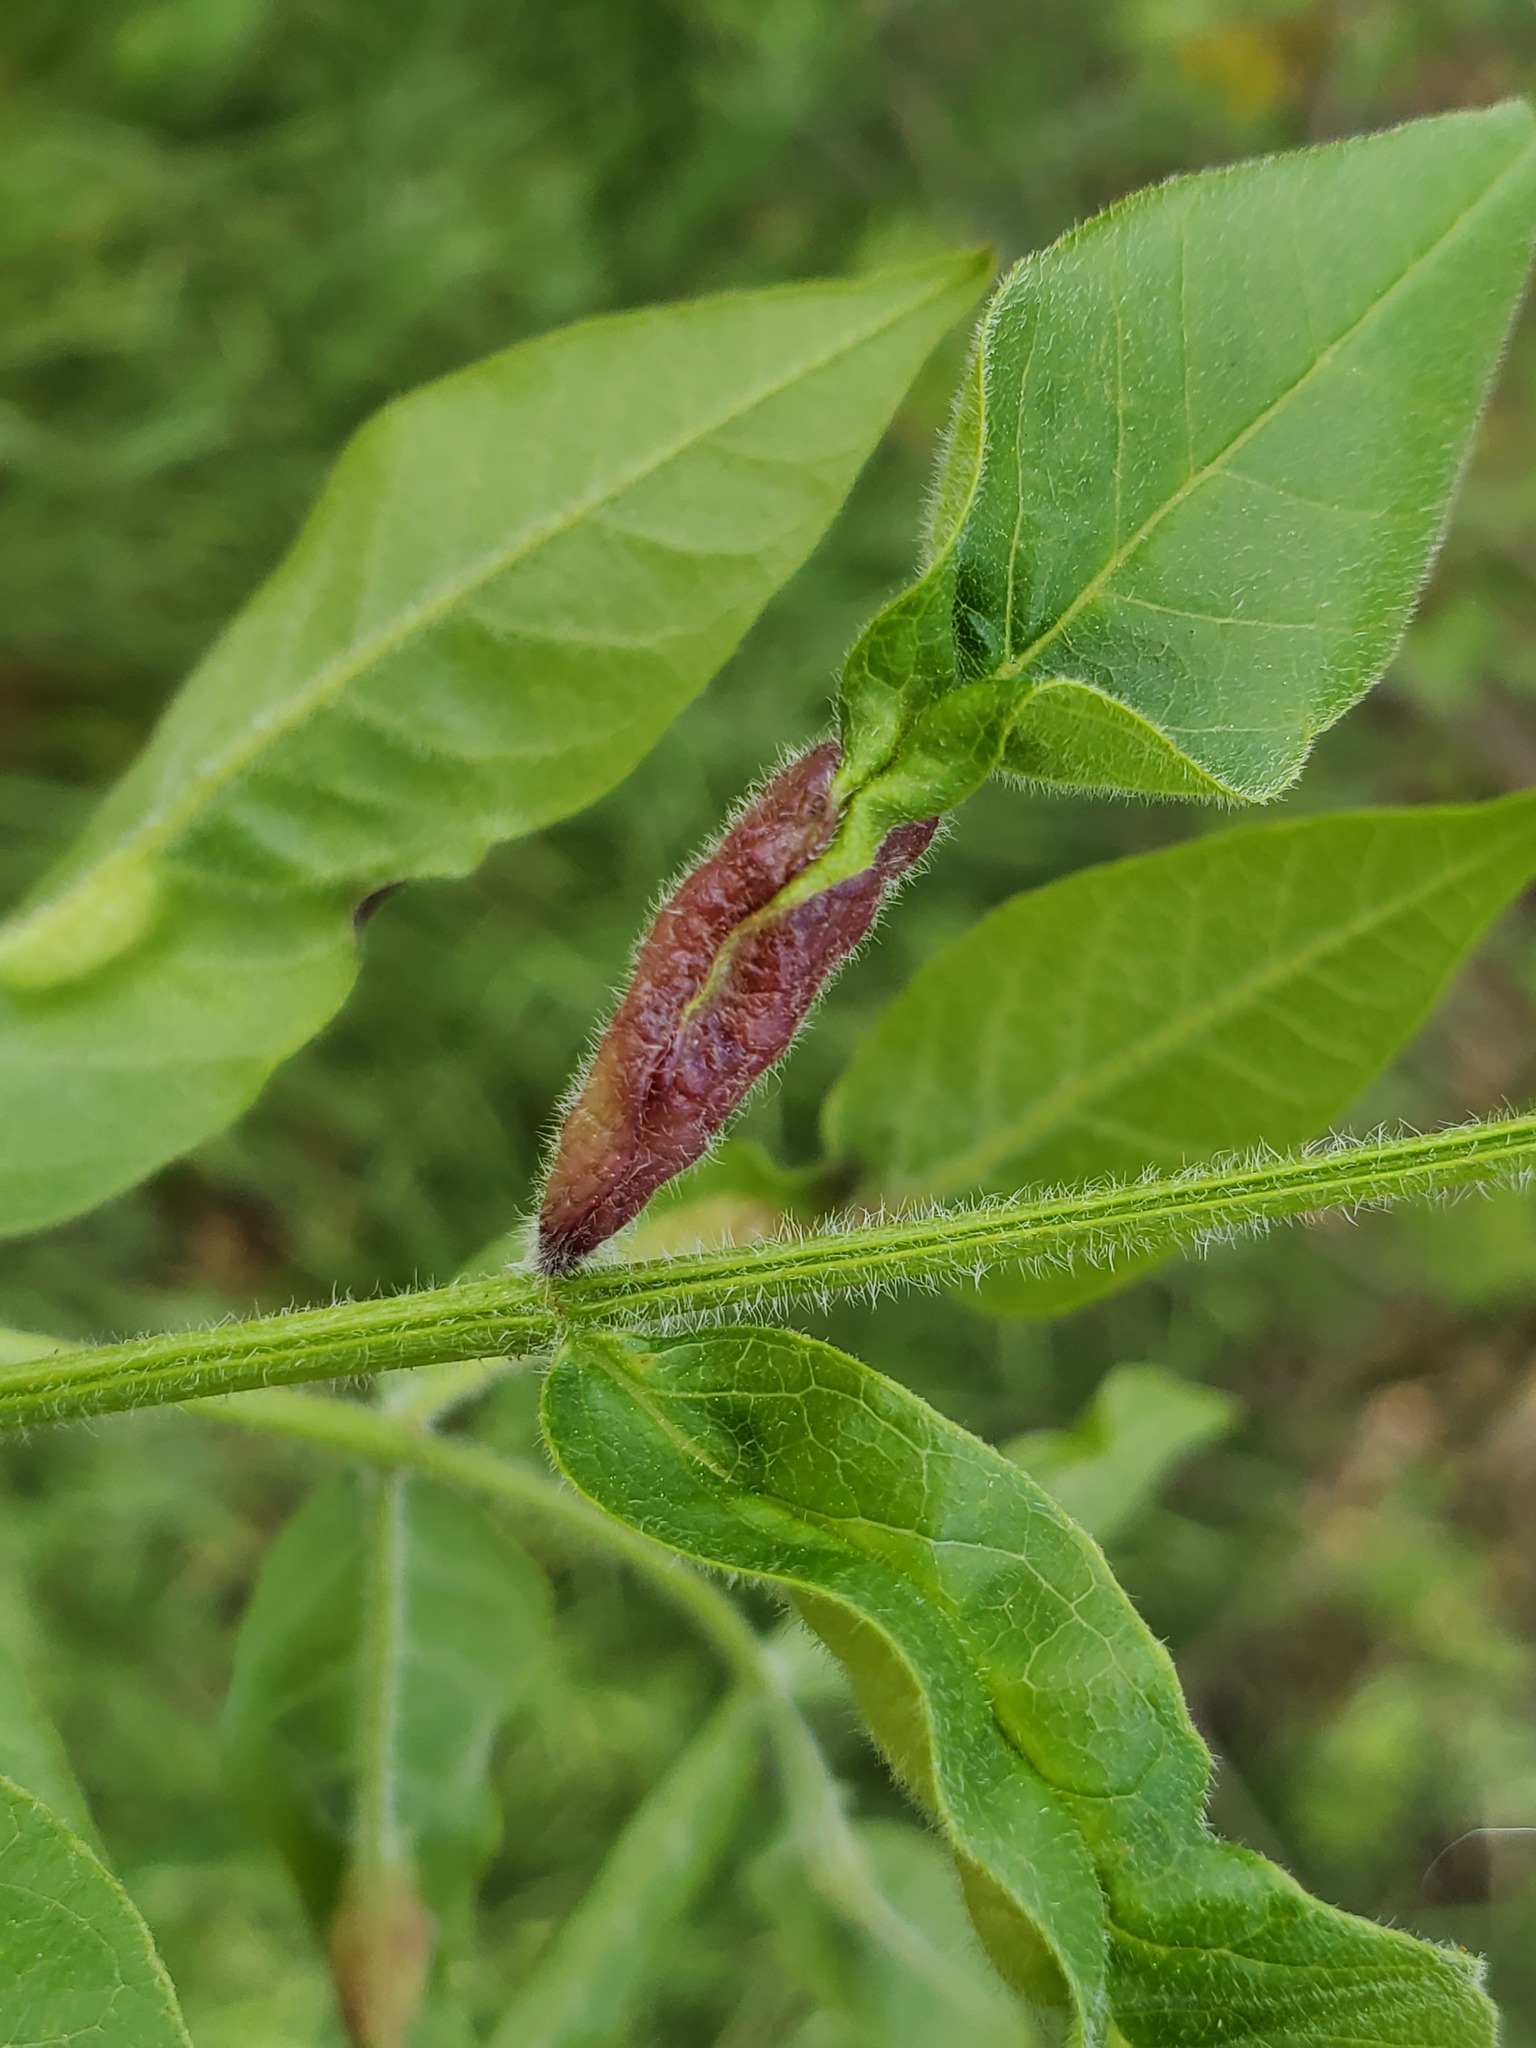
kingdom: Animalia
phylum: Arthropoda
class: Insecta
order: Diptera
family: Cecidomyiidae
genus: Dasineura
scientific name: Dasineura tumidosae
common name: Ash petiole gall midge
